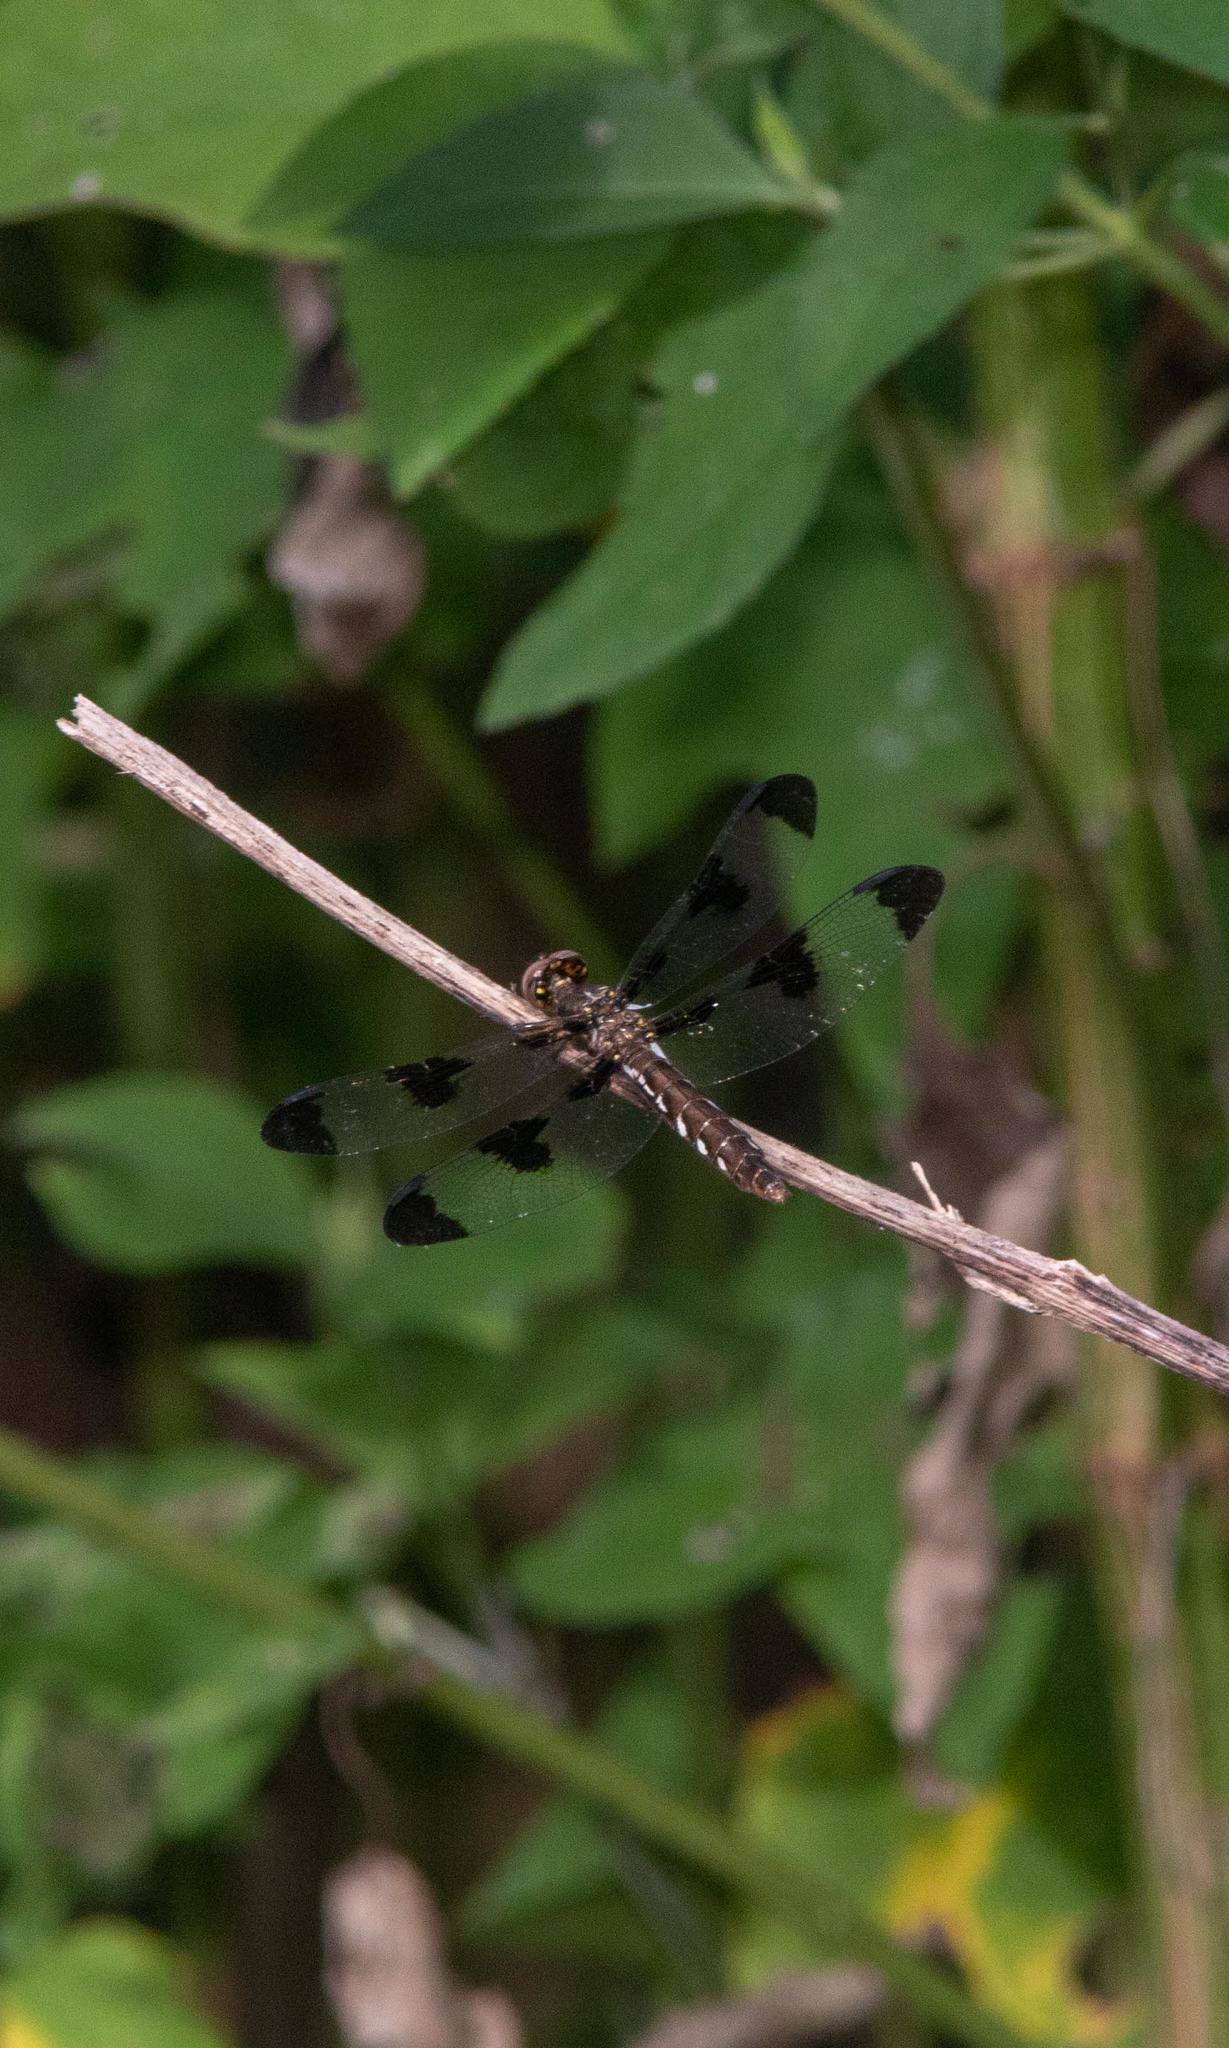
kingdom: Animalia
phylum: Arthropoda
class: Insecta
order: Odonata
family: Libellulidae
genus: Plathemis
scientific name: Plathemis lydia
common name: Common whitetail
